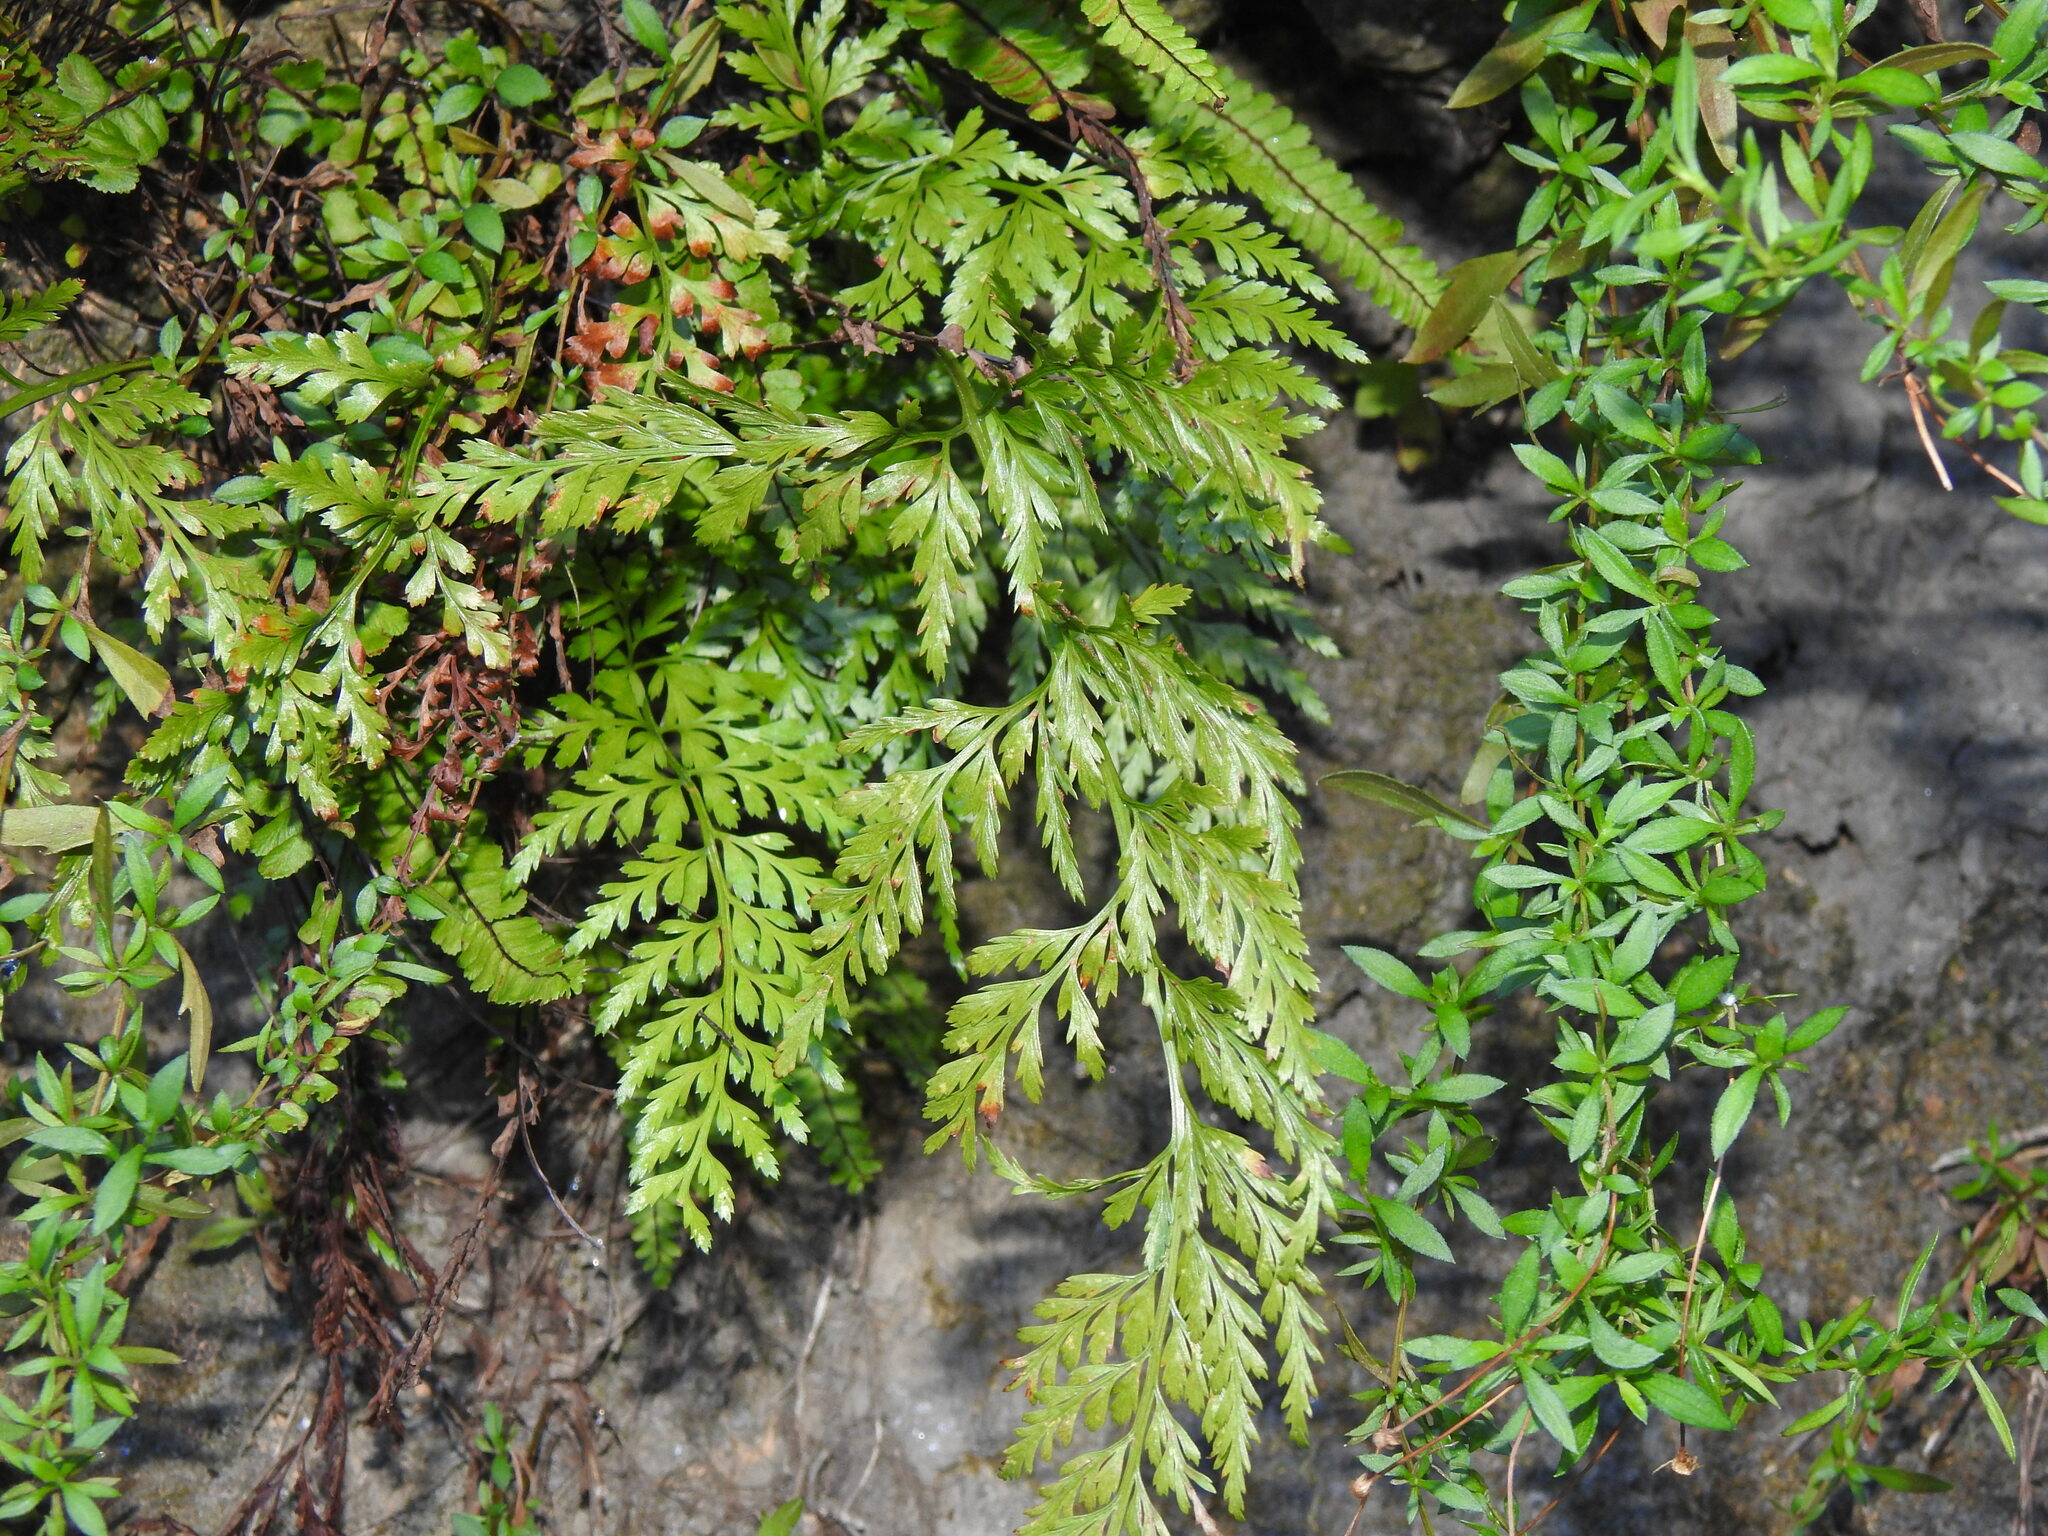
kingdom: Plantae
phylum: Tracheophyta
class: Polypodiopsida
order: Polypodiales
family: Aspleniaceae
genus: Asplenium
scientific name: Asplenium onopteris
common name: Irish spleenwort
